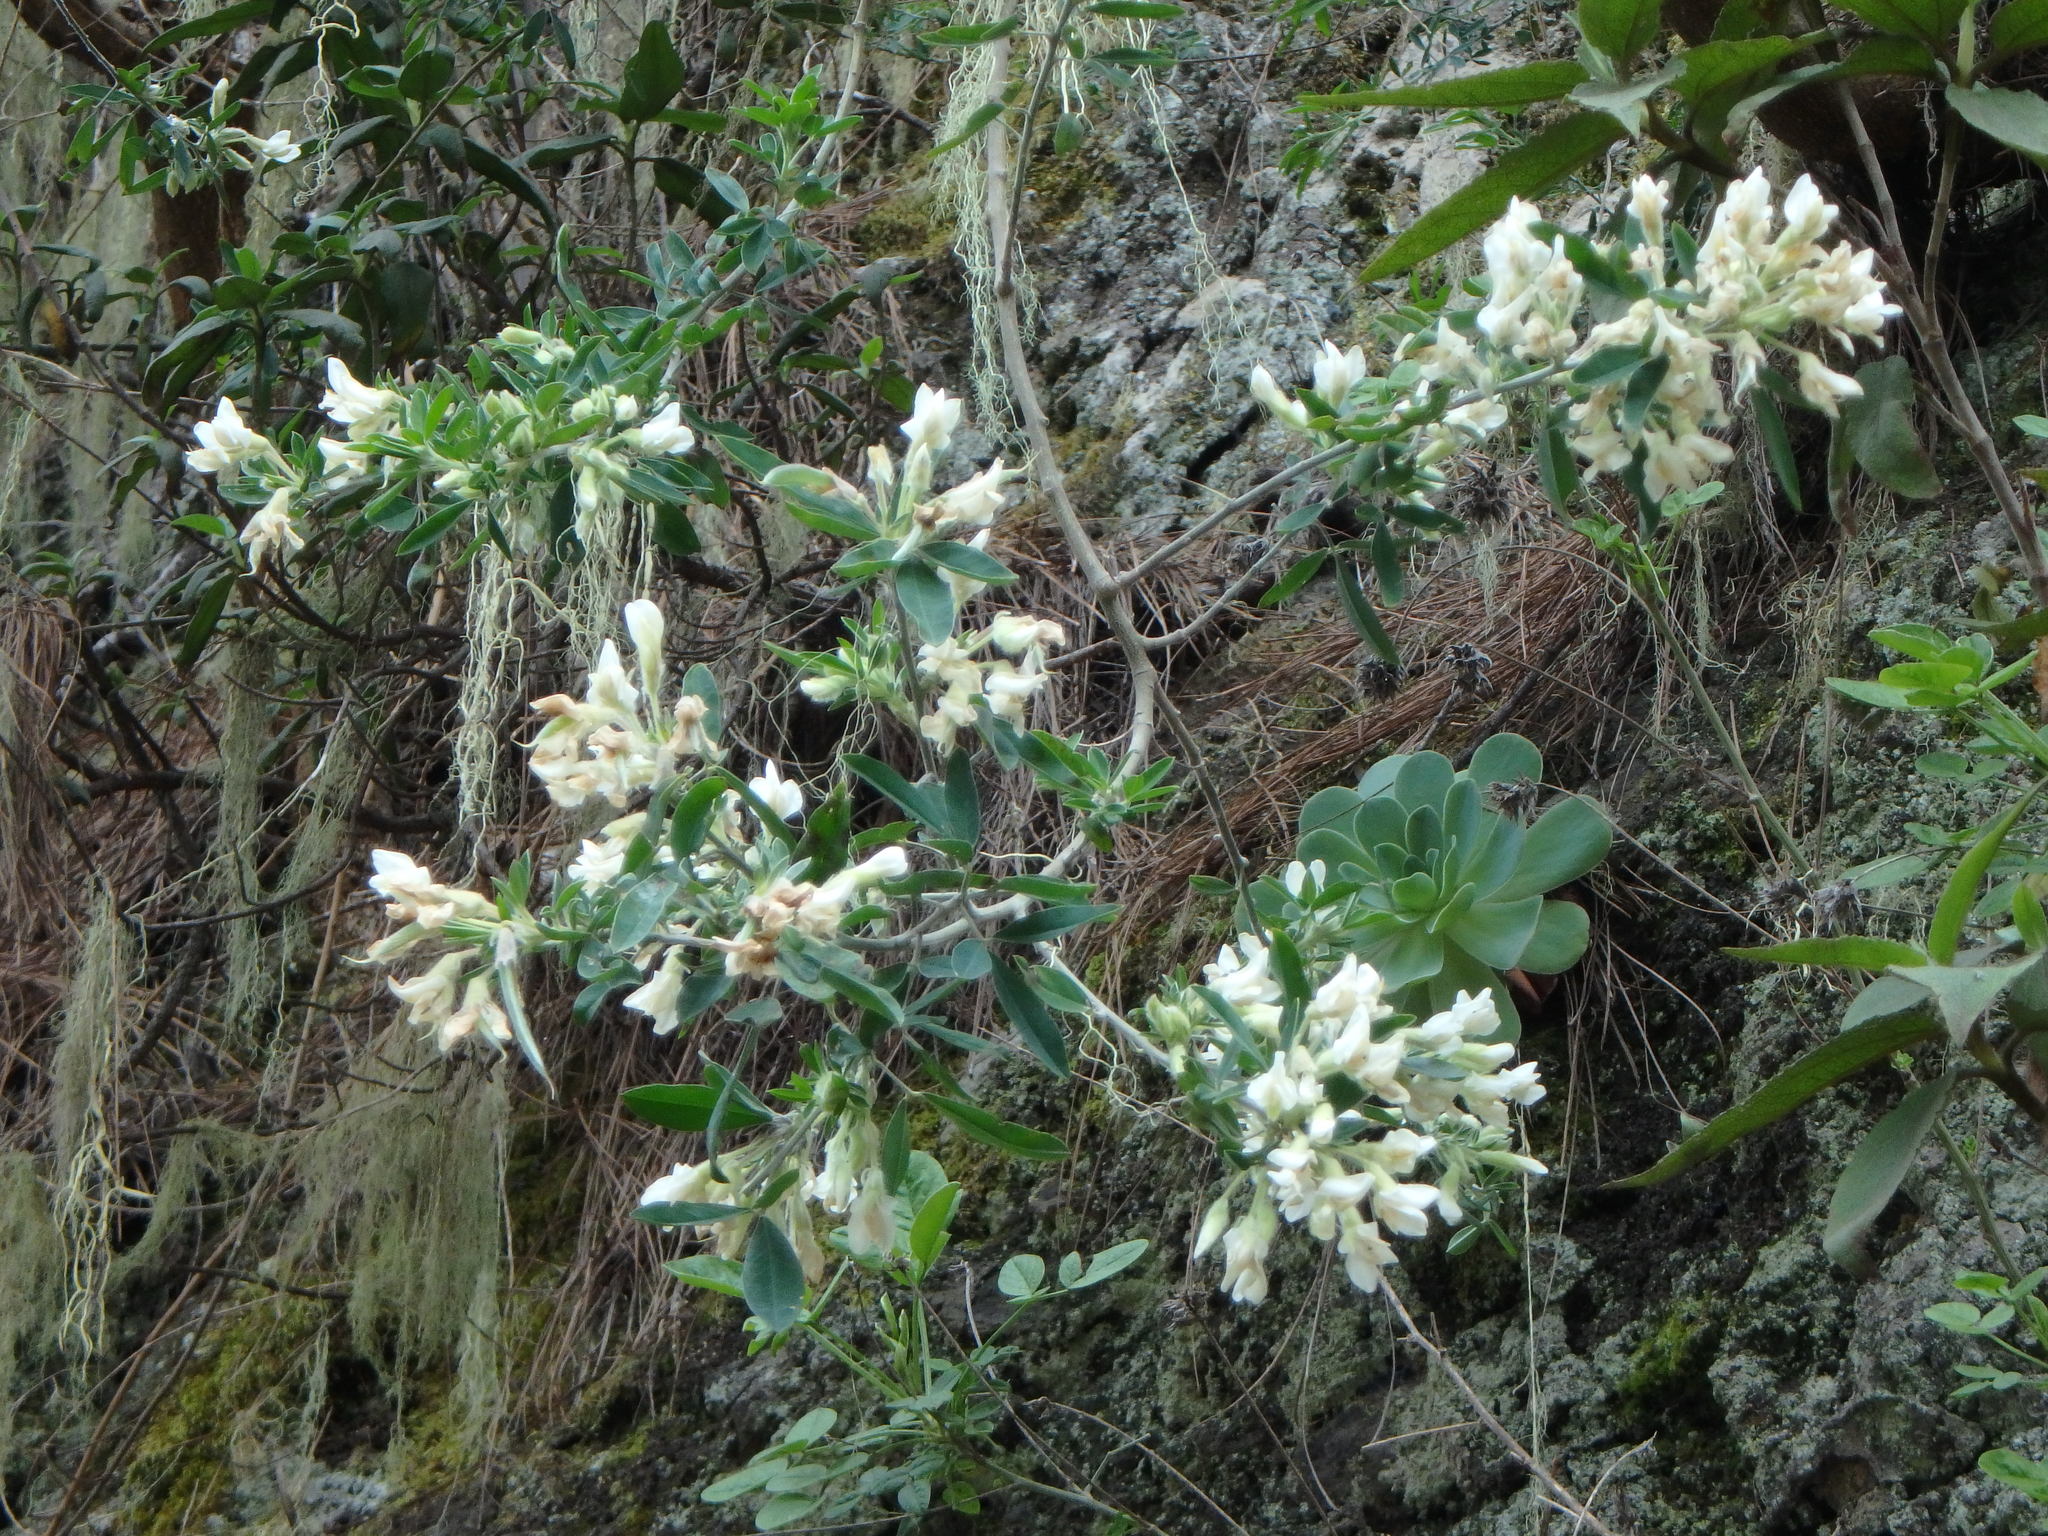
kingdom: Plantae
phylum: Tracheophyta
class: Magnoliopsida
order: Fabales
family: Fabaceae
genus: Chamaecytisus
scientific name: Chamaecytisus prolifer
